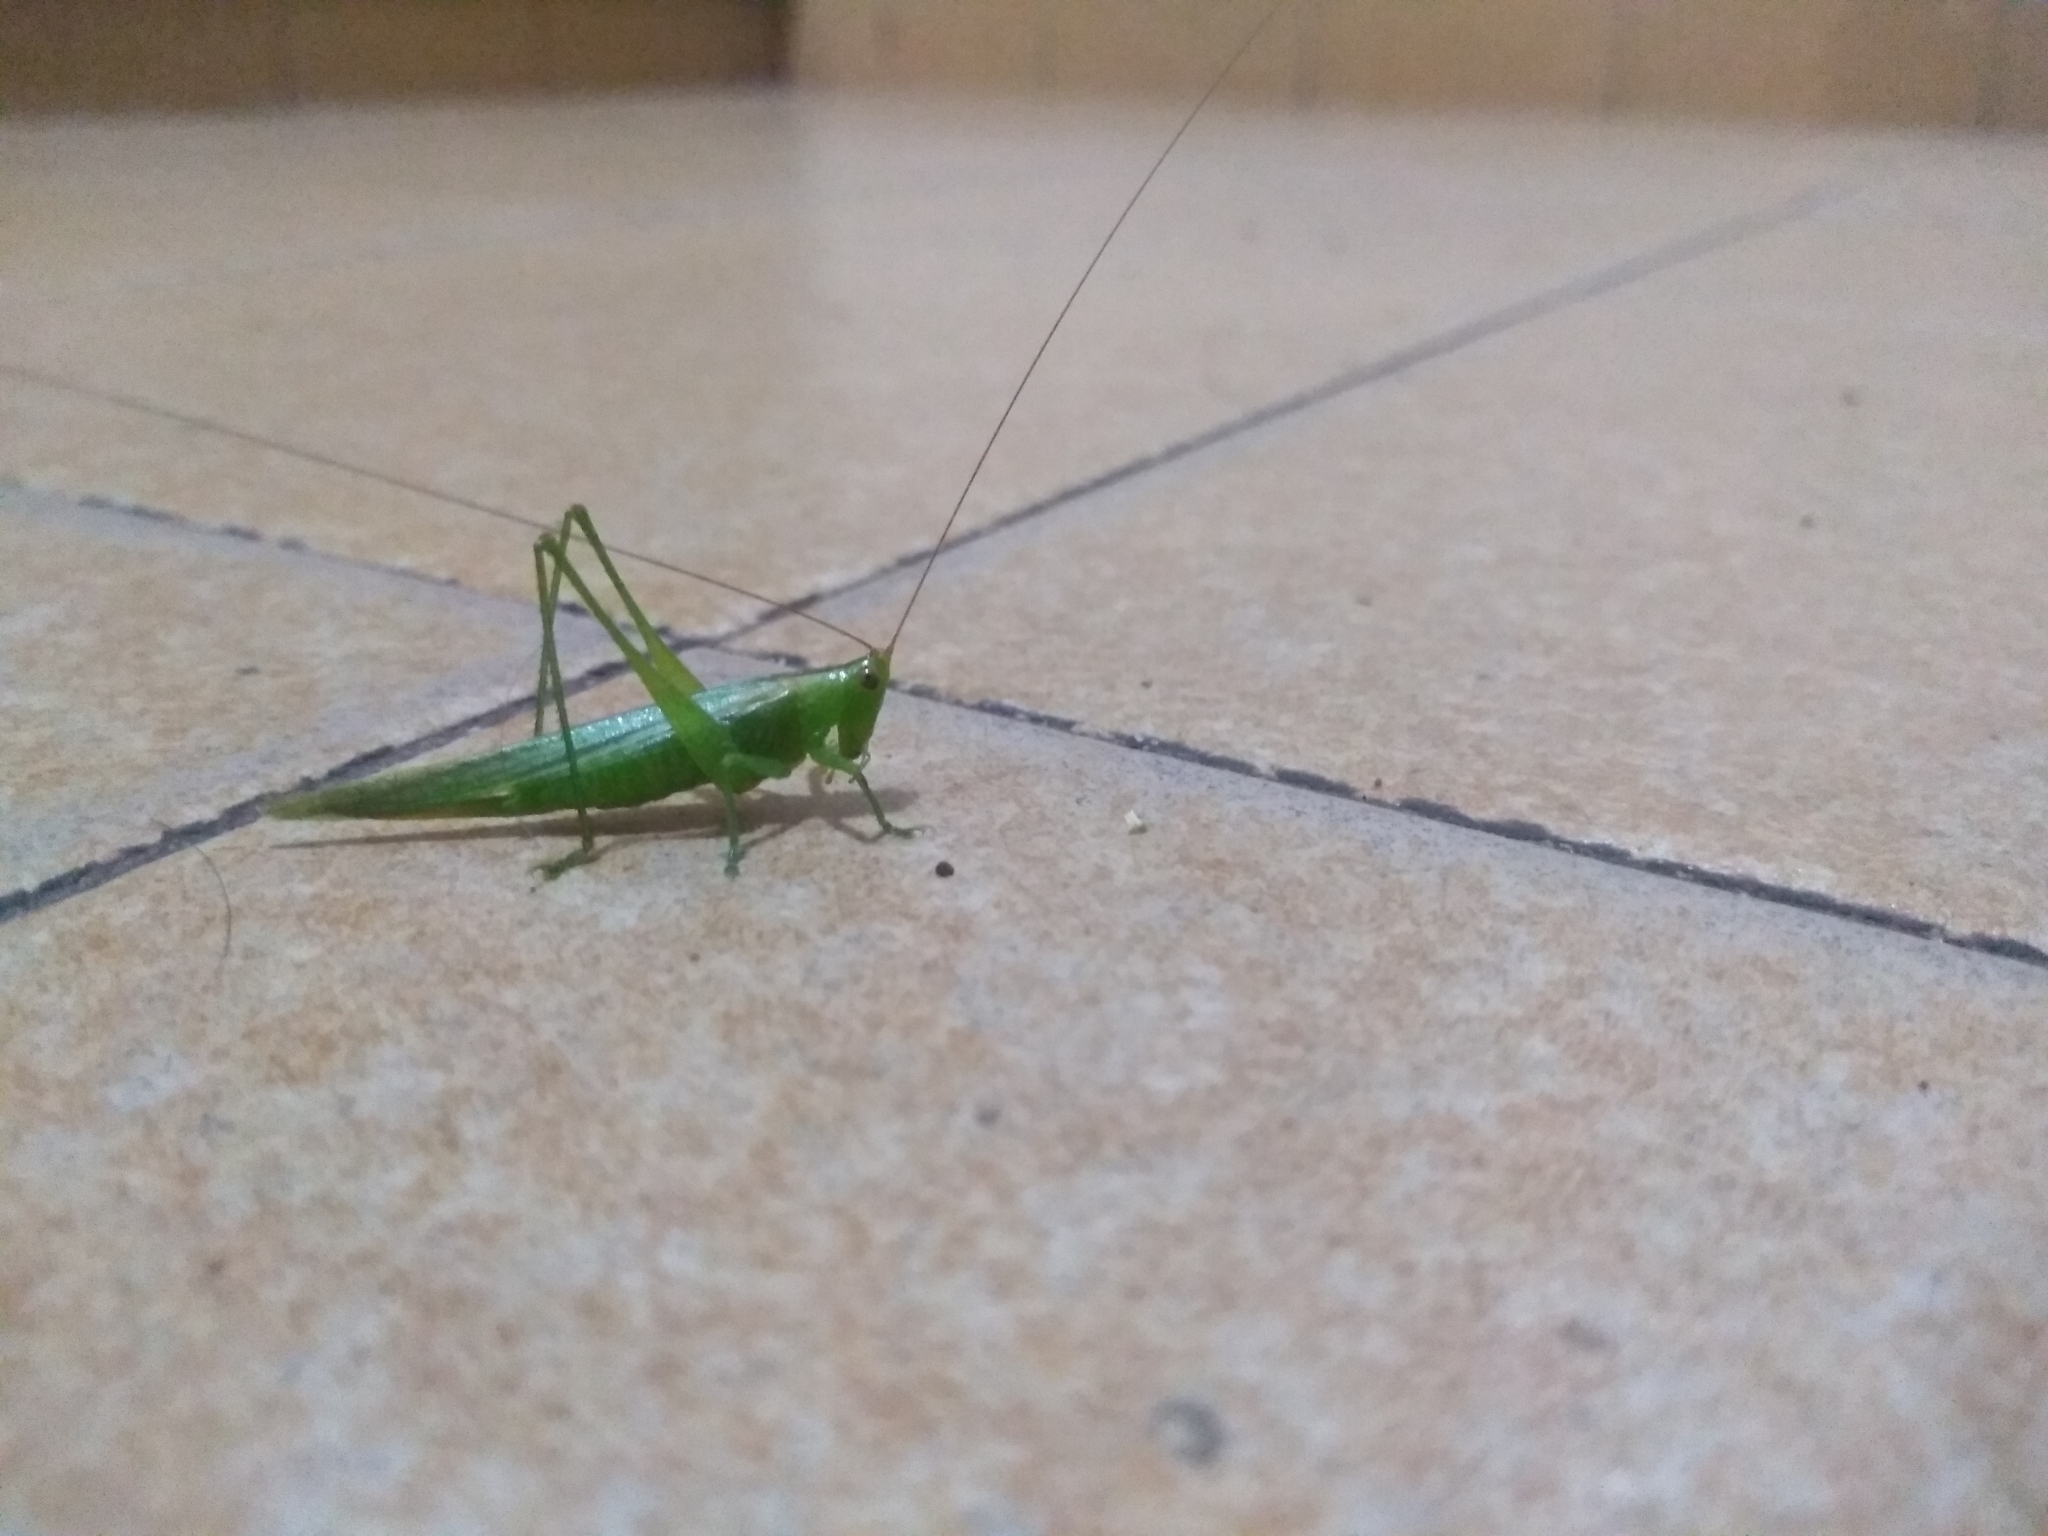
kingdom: Animalia
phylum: Arthropoda
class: Insecta
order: Orthoptera
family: Tettigoniidae
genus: Conocephalus
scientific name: Conocephalus longipes
